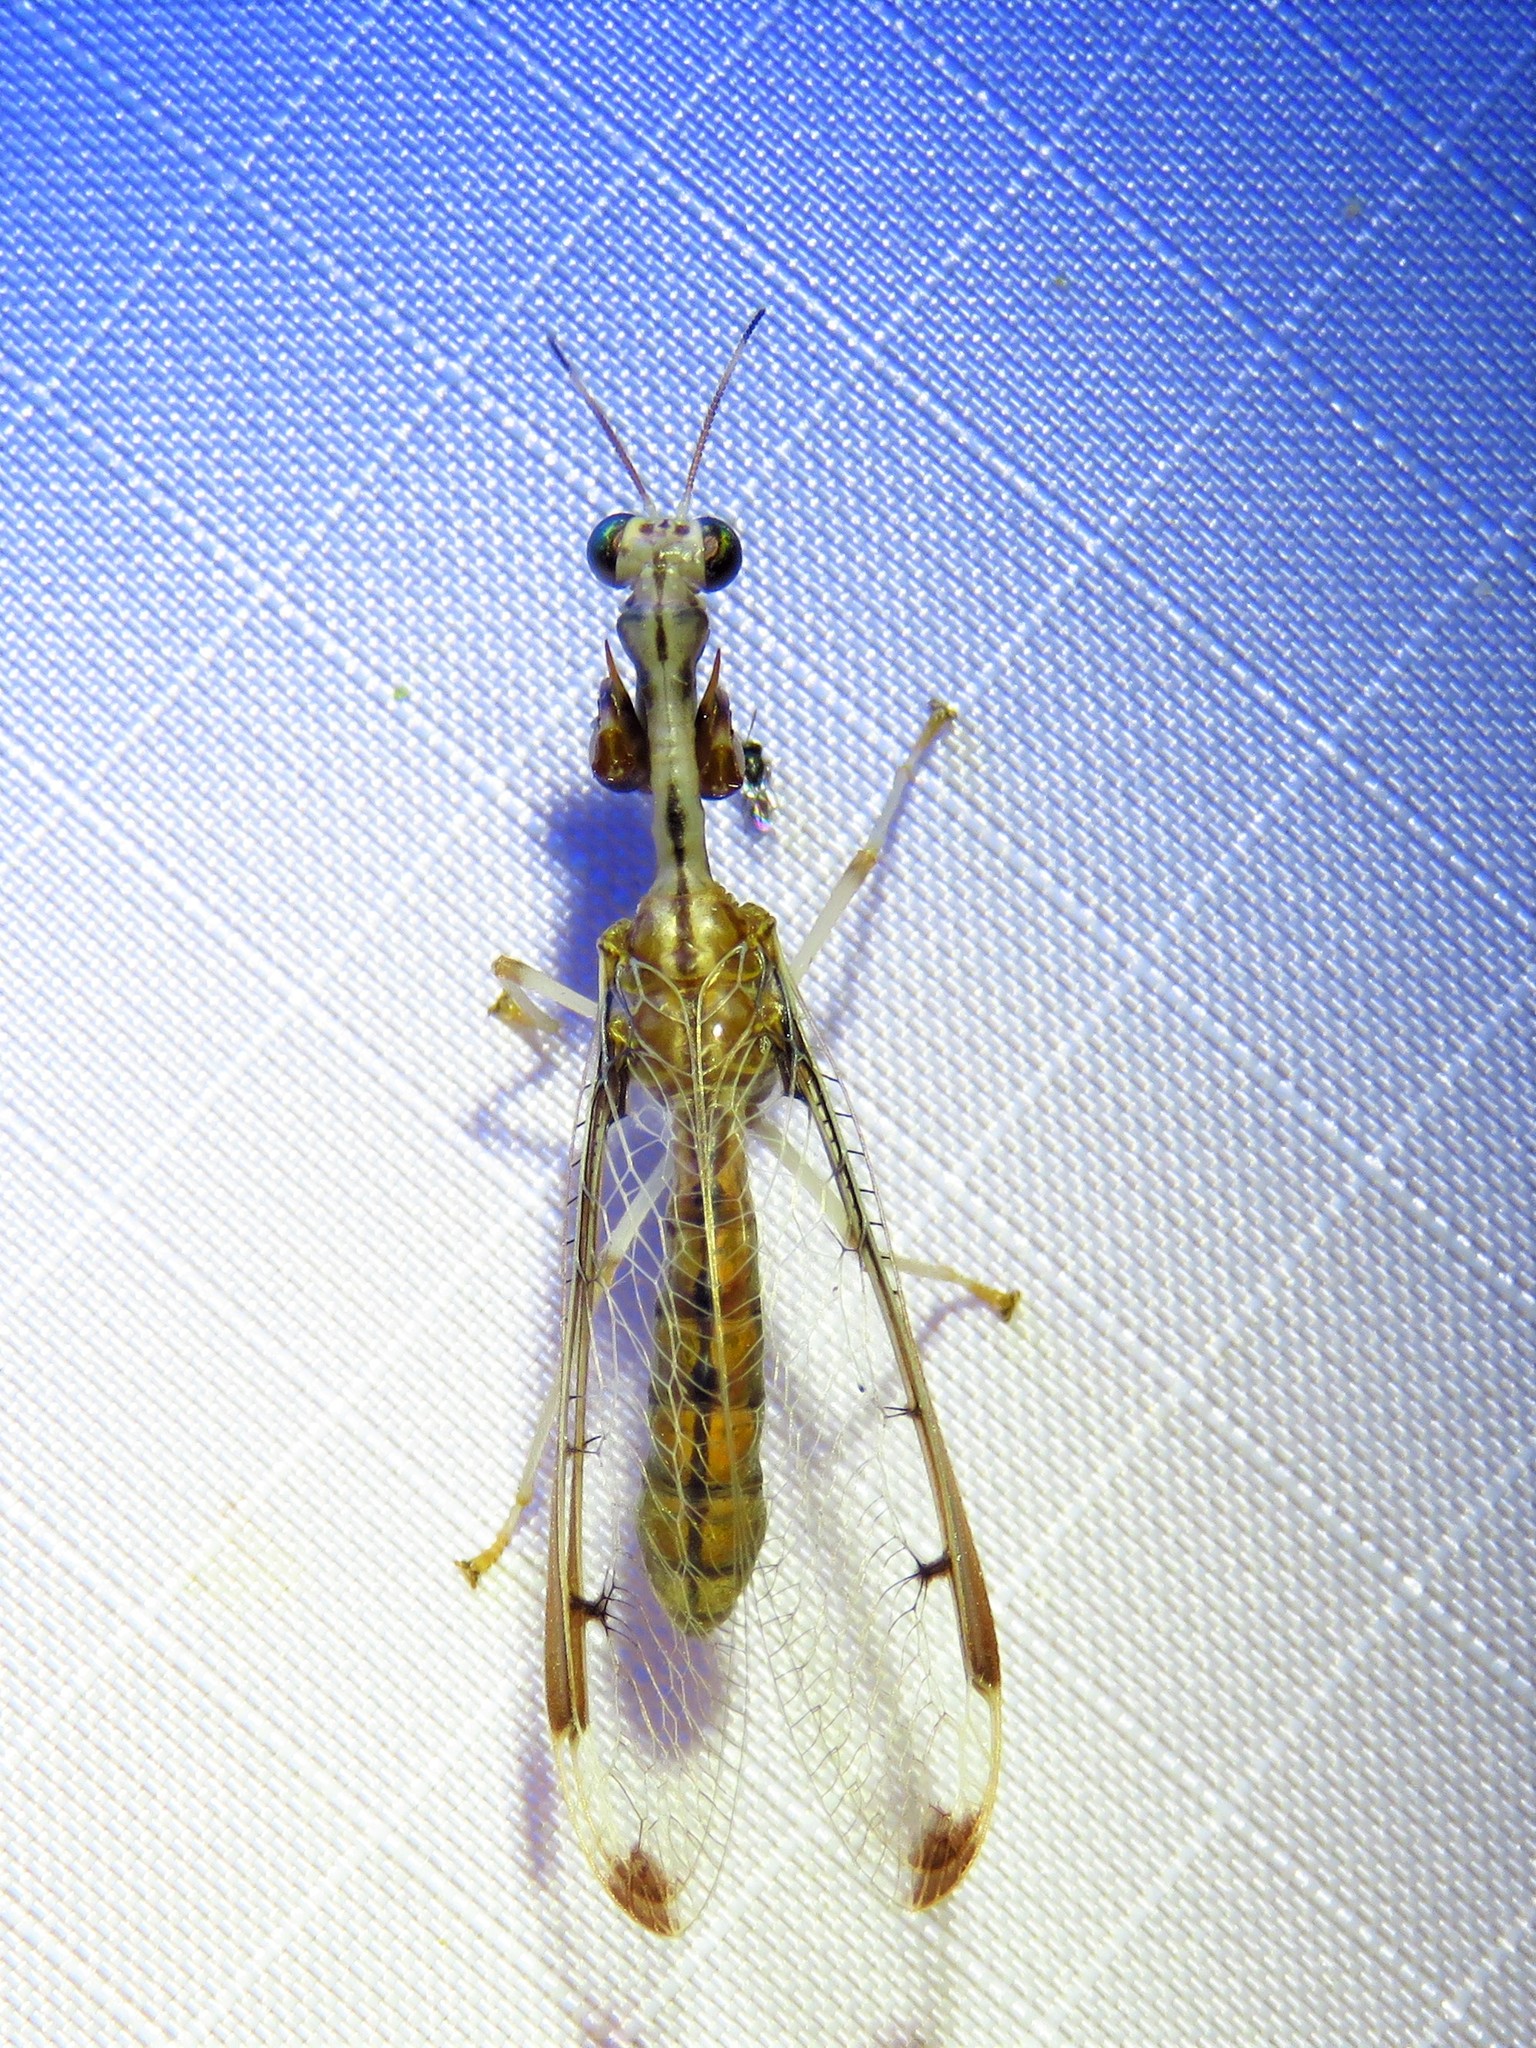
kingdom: Animalia
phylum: Arthropoda
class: Insecta
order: Neuroptera
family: Mantispidae
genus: Dicromantispa
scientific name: Dicromantispa interrupta
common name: Four-spotted mantidfly
